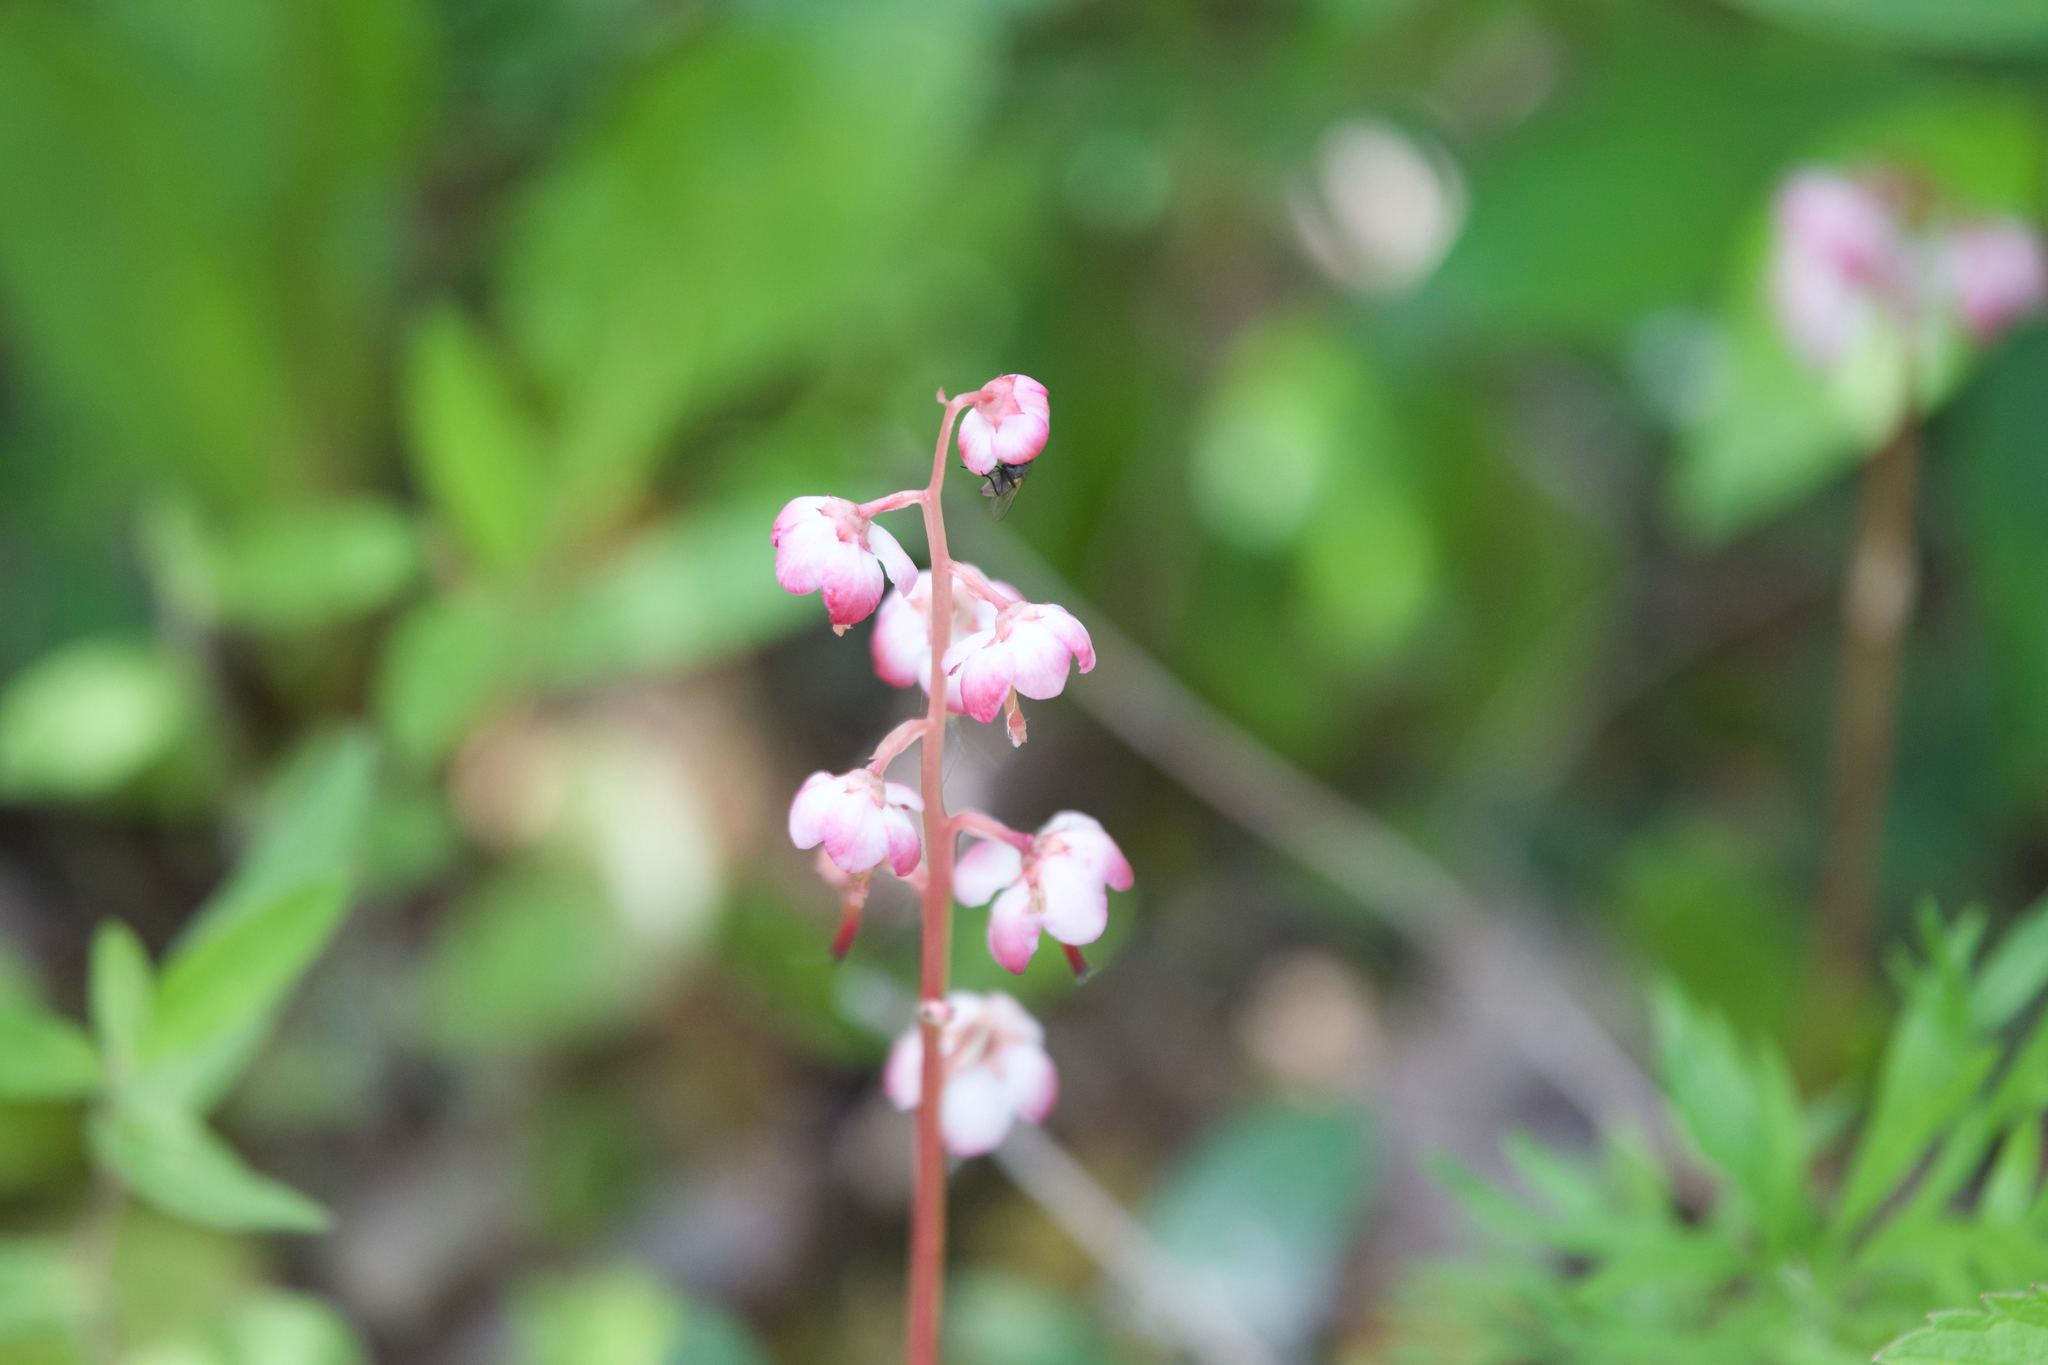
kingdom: Plantae
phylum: Tracheophyta
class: Magnoliopsida
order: Ericales
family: Ericaceae
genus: Pyrola
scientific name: Pyrola asarifolia
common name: Bog wintergreen
